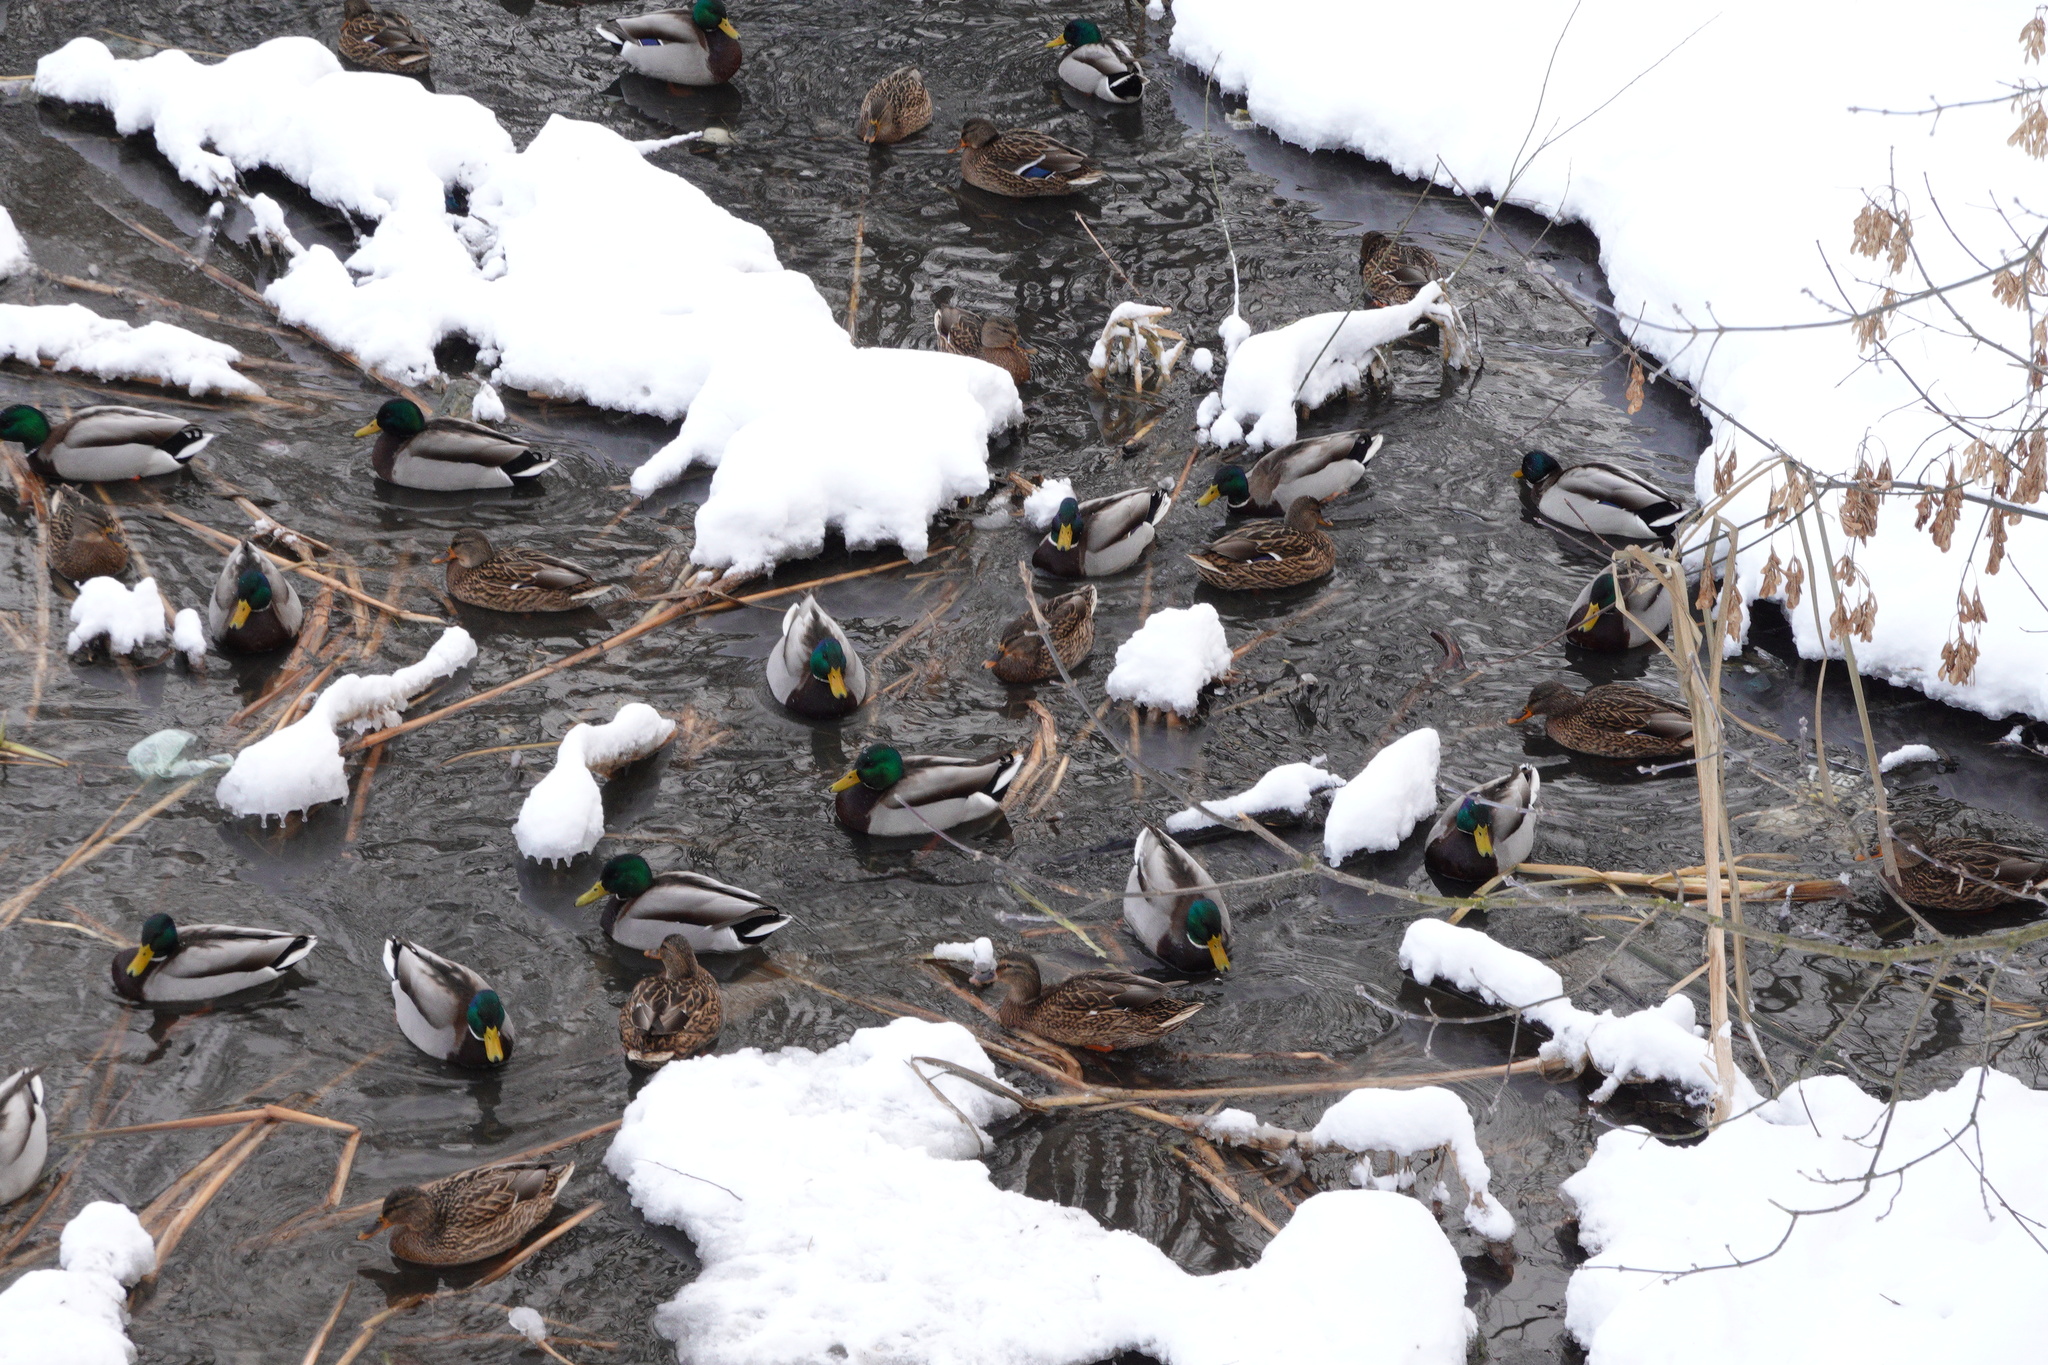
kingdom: Animalia
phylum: Chordata
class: Aves
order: Anseriformes
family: Anatidae
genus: Anas
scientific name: Anas platyrhynchos
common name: Mallard
